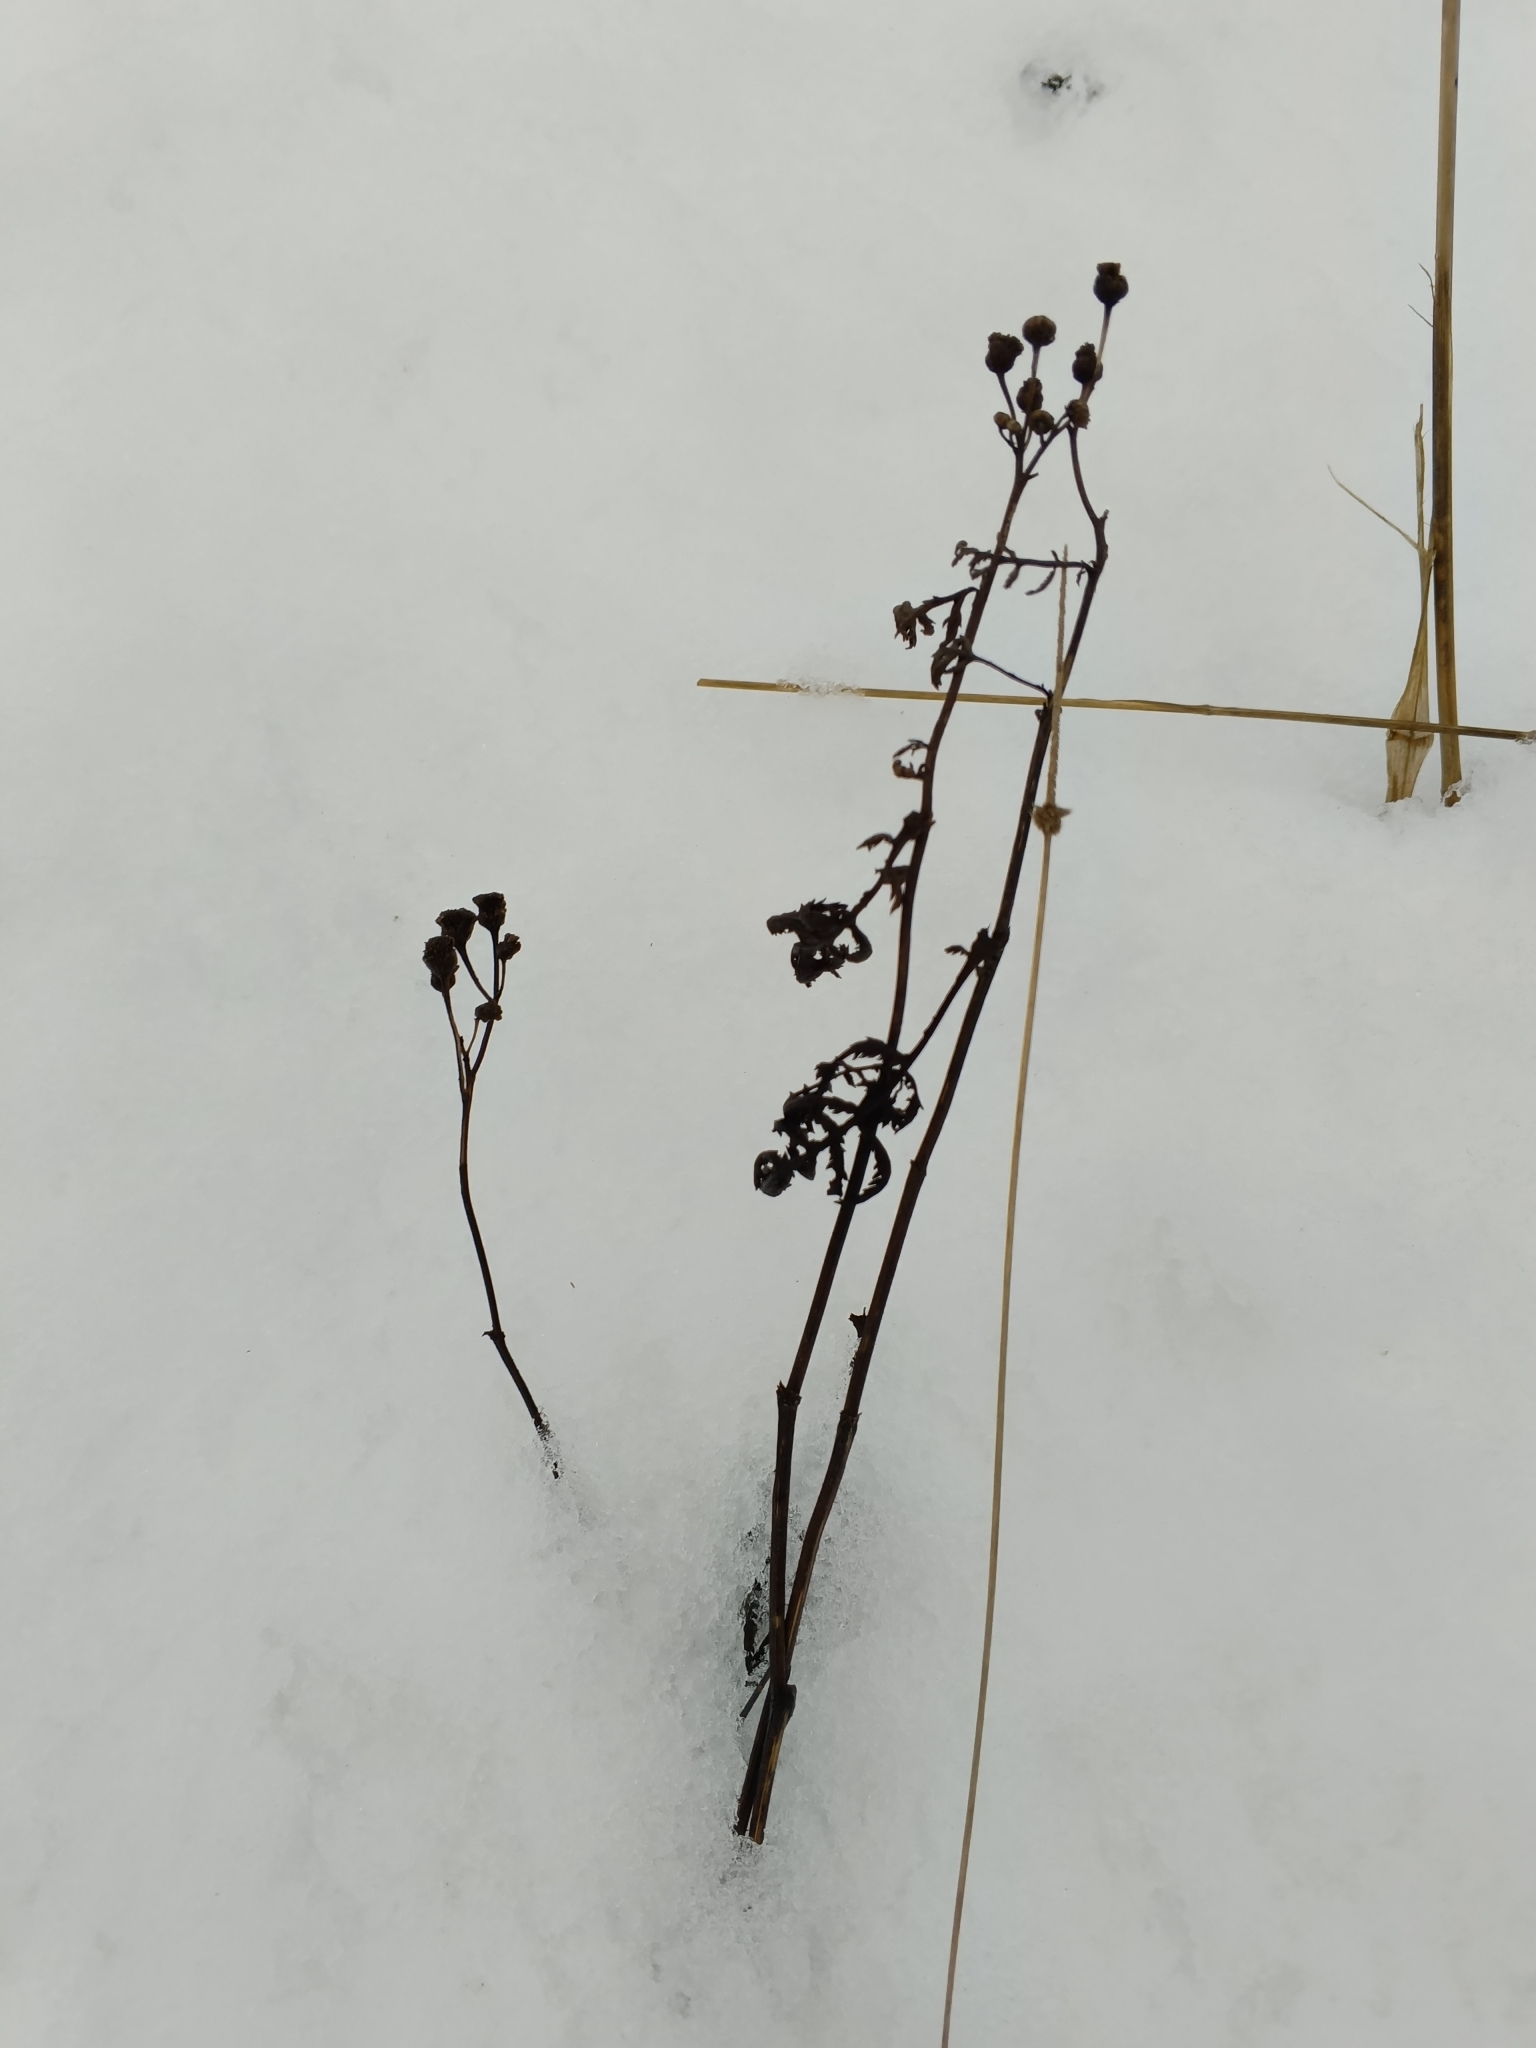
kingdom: Plantae
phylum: Tracheophyta
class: Magnoliopsida
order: Asterales
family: Asteraceae
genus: Tanacetum
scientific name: Tanacetum vulgare
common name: Common tansy
